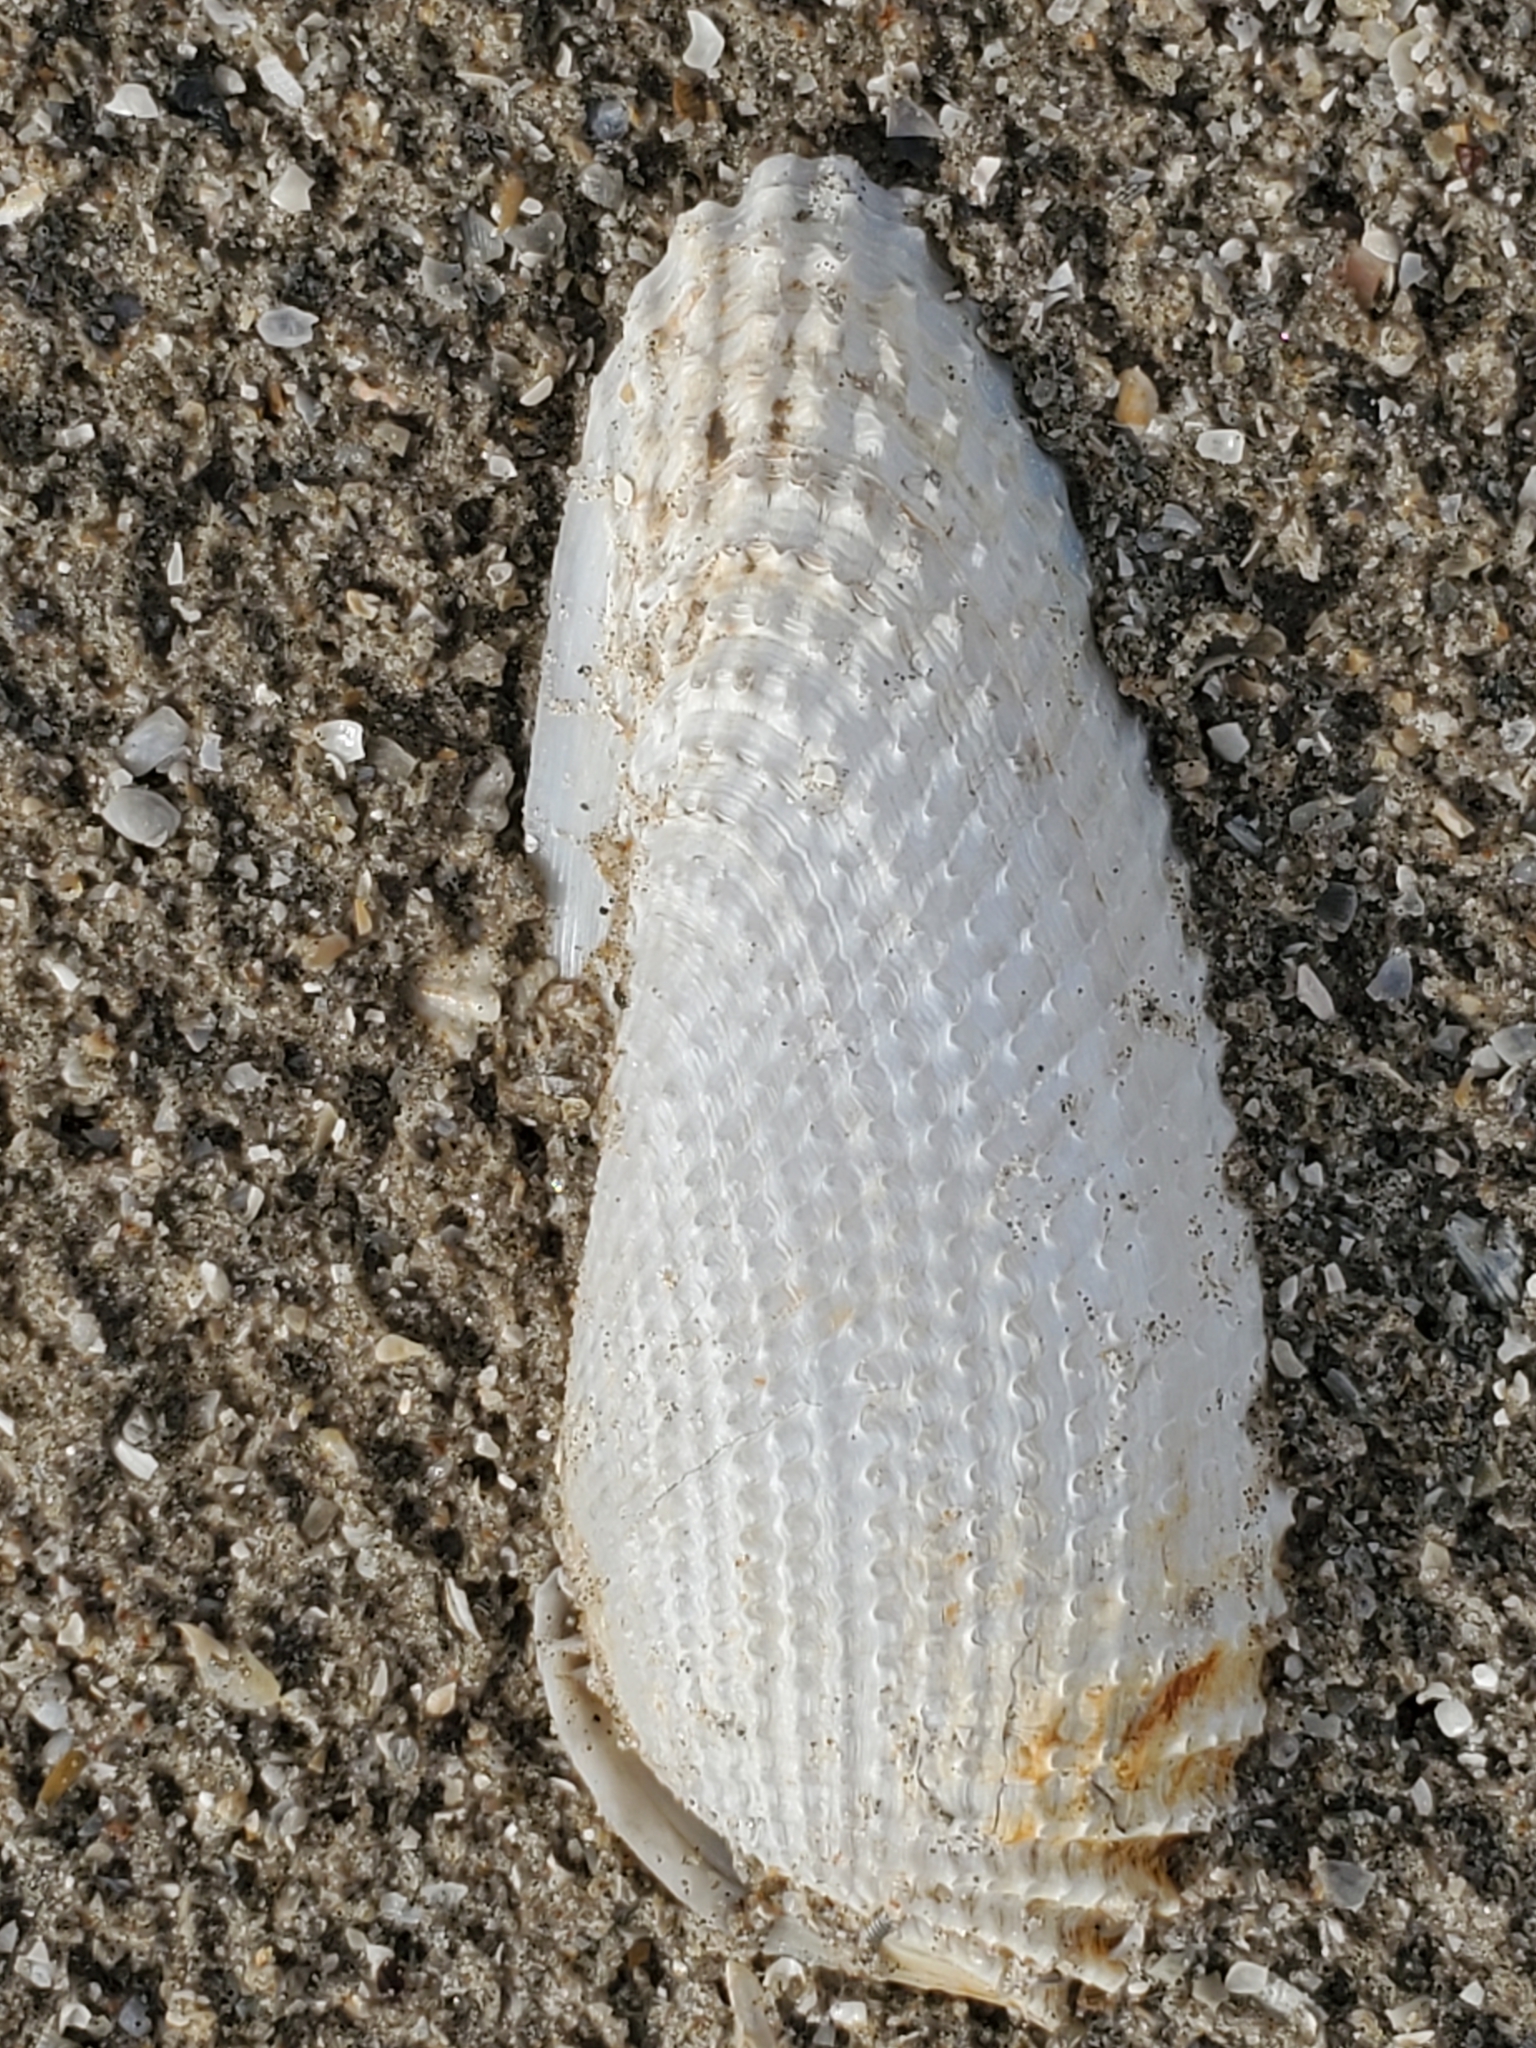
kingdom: Animalia
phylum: Mollusca
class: Bivalvia
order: Myida
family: Pholadidae
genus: Cyrtopleura
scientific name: Cyrtopleura costata
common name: Angel wing
